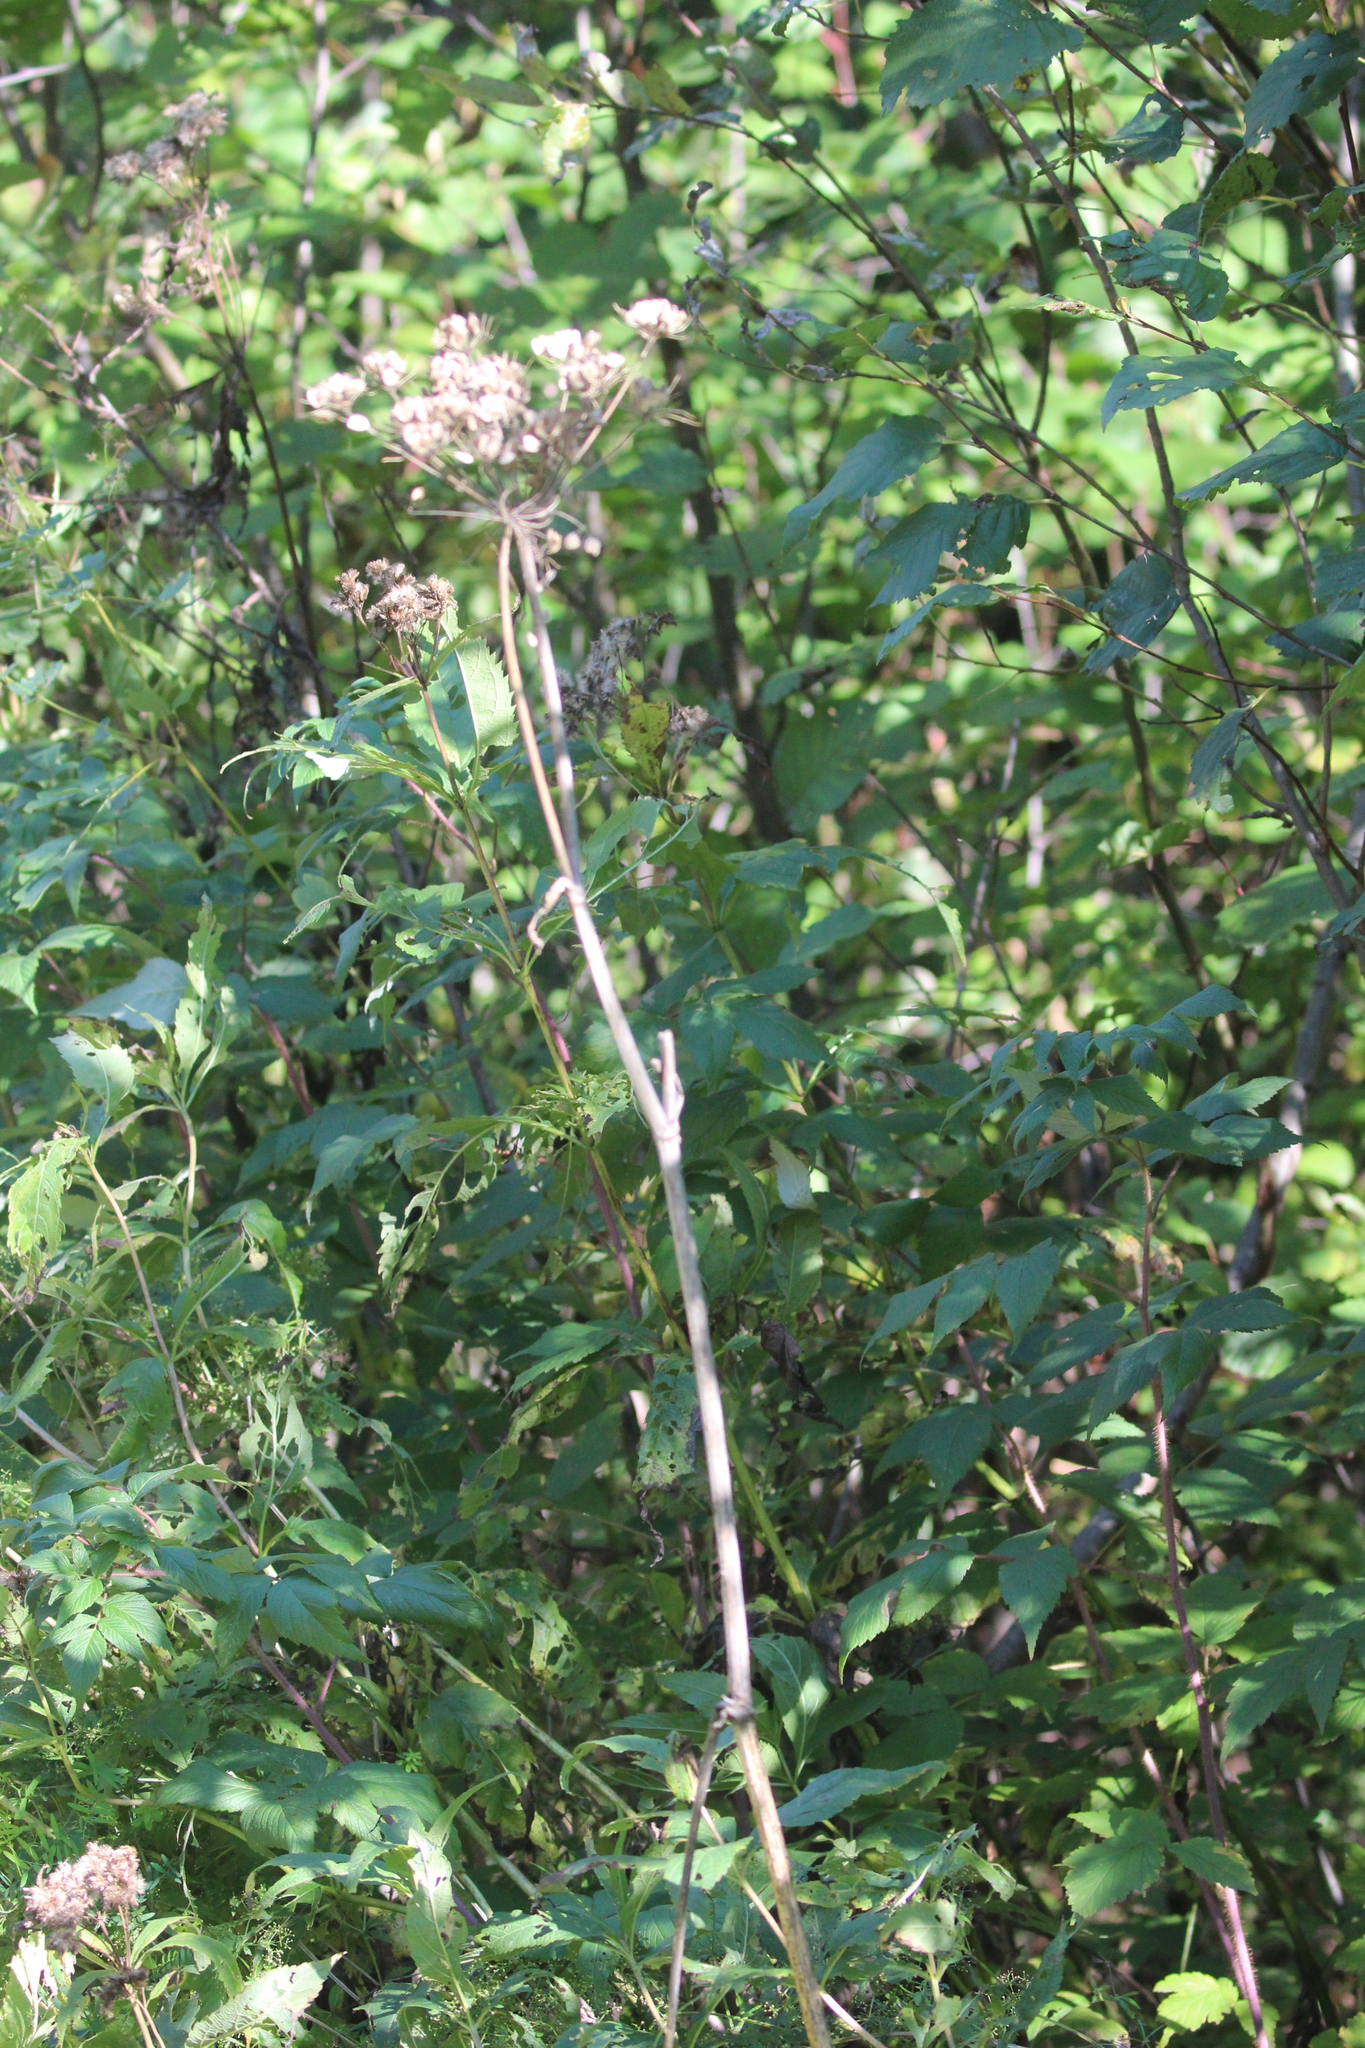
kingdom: Plantae
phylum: Tracheophyta
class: Magnoliopsida
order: Apiales
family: Apiaceae
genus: Heracleum
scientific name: Heracleum maximum
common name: American cow parsnip
